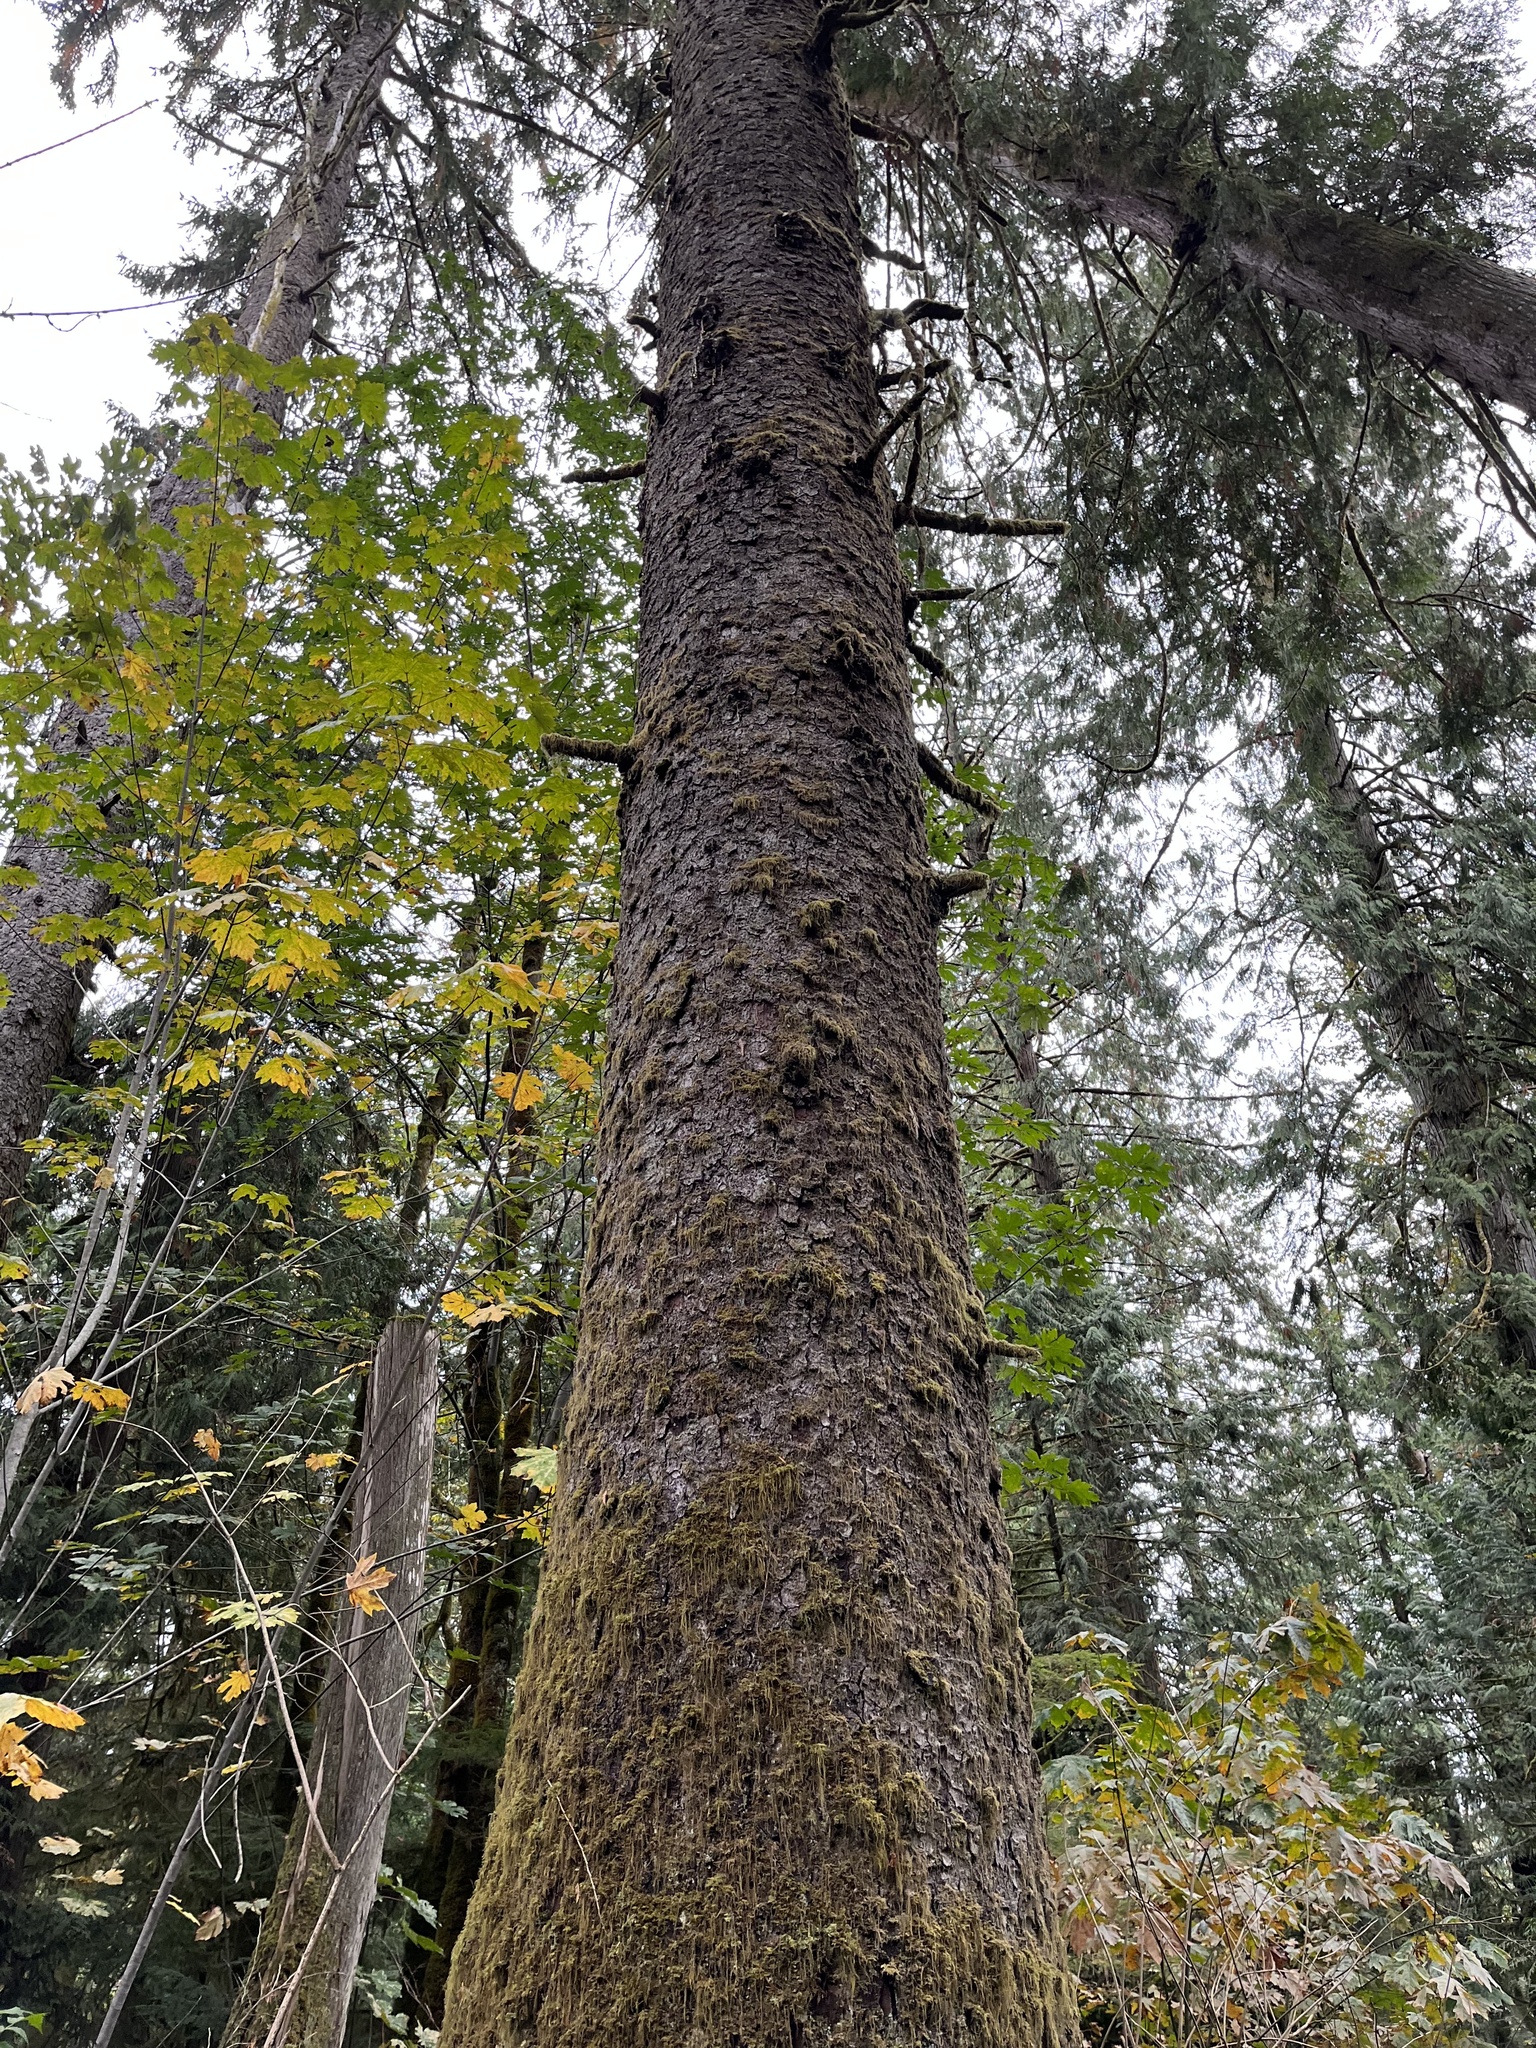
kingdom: Plantae
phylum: Tracheophyta
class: Pinopsida
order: Pinales
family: Pinaceae
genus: Picea
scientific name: Picea sitchensis
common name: Sitka spruce
